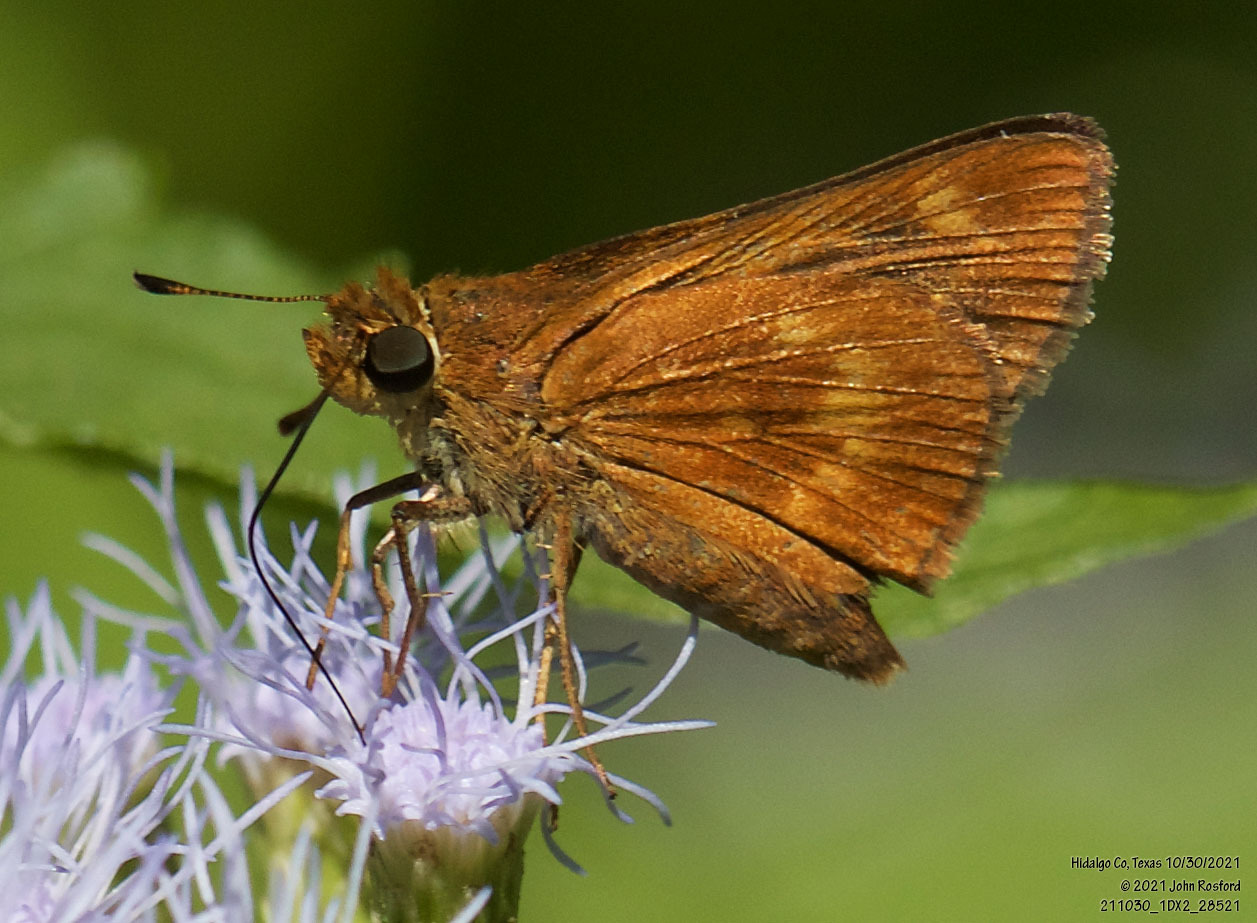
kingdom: Animalia
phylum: Arthropoda
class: Insecta
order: Lepidoptera
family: Hesperiidae
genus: Polites
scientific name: Polites otho
